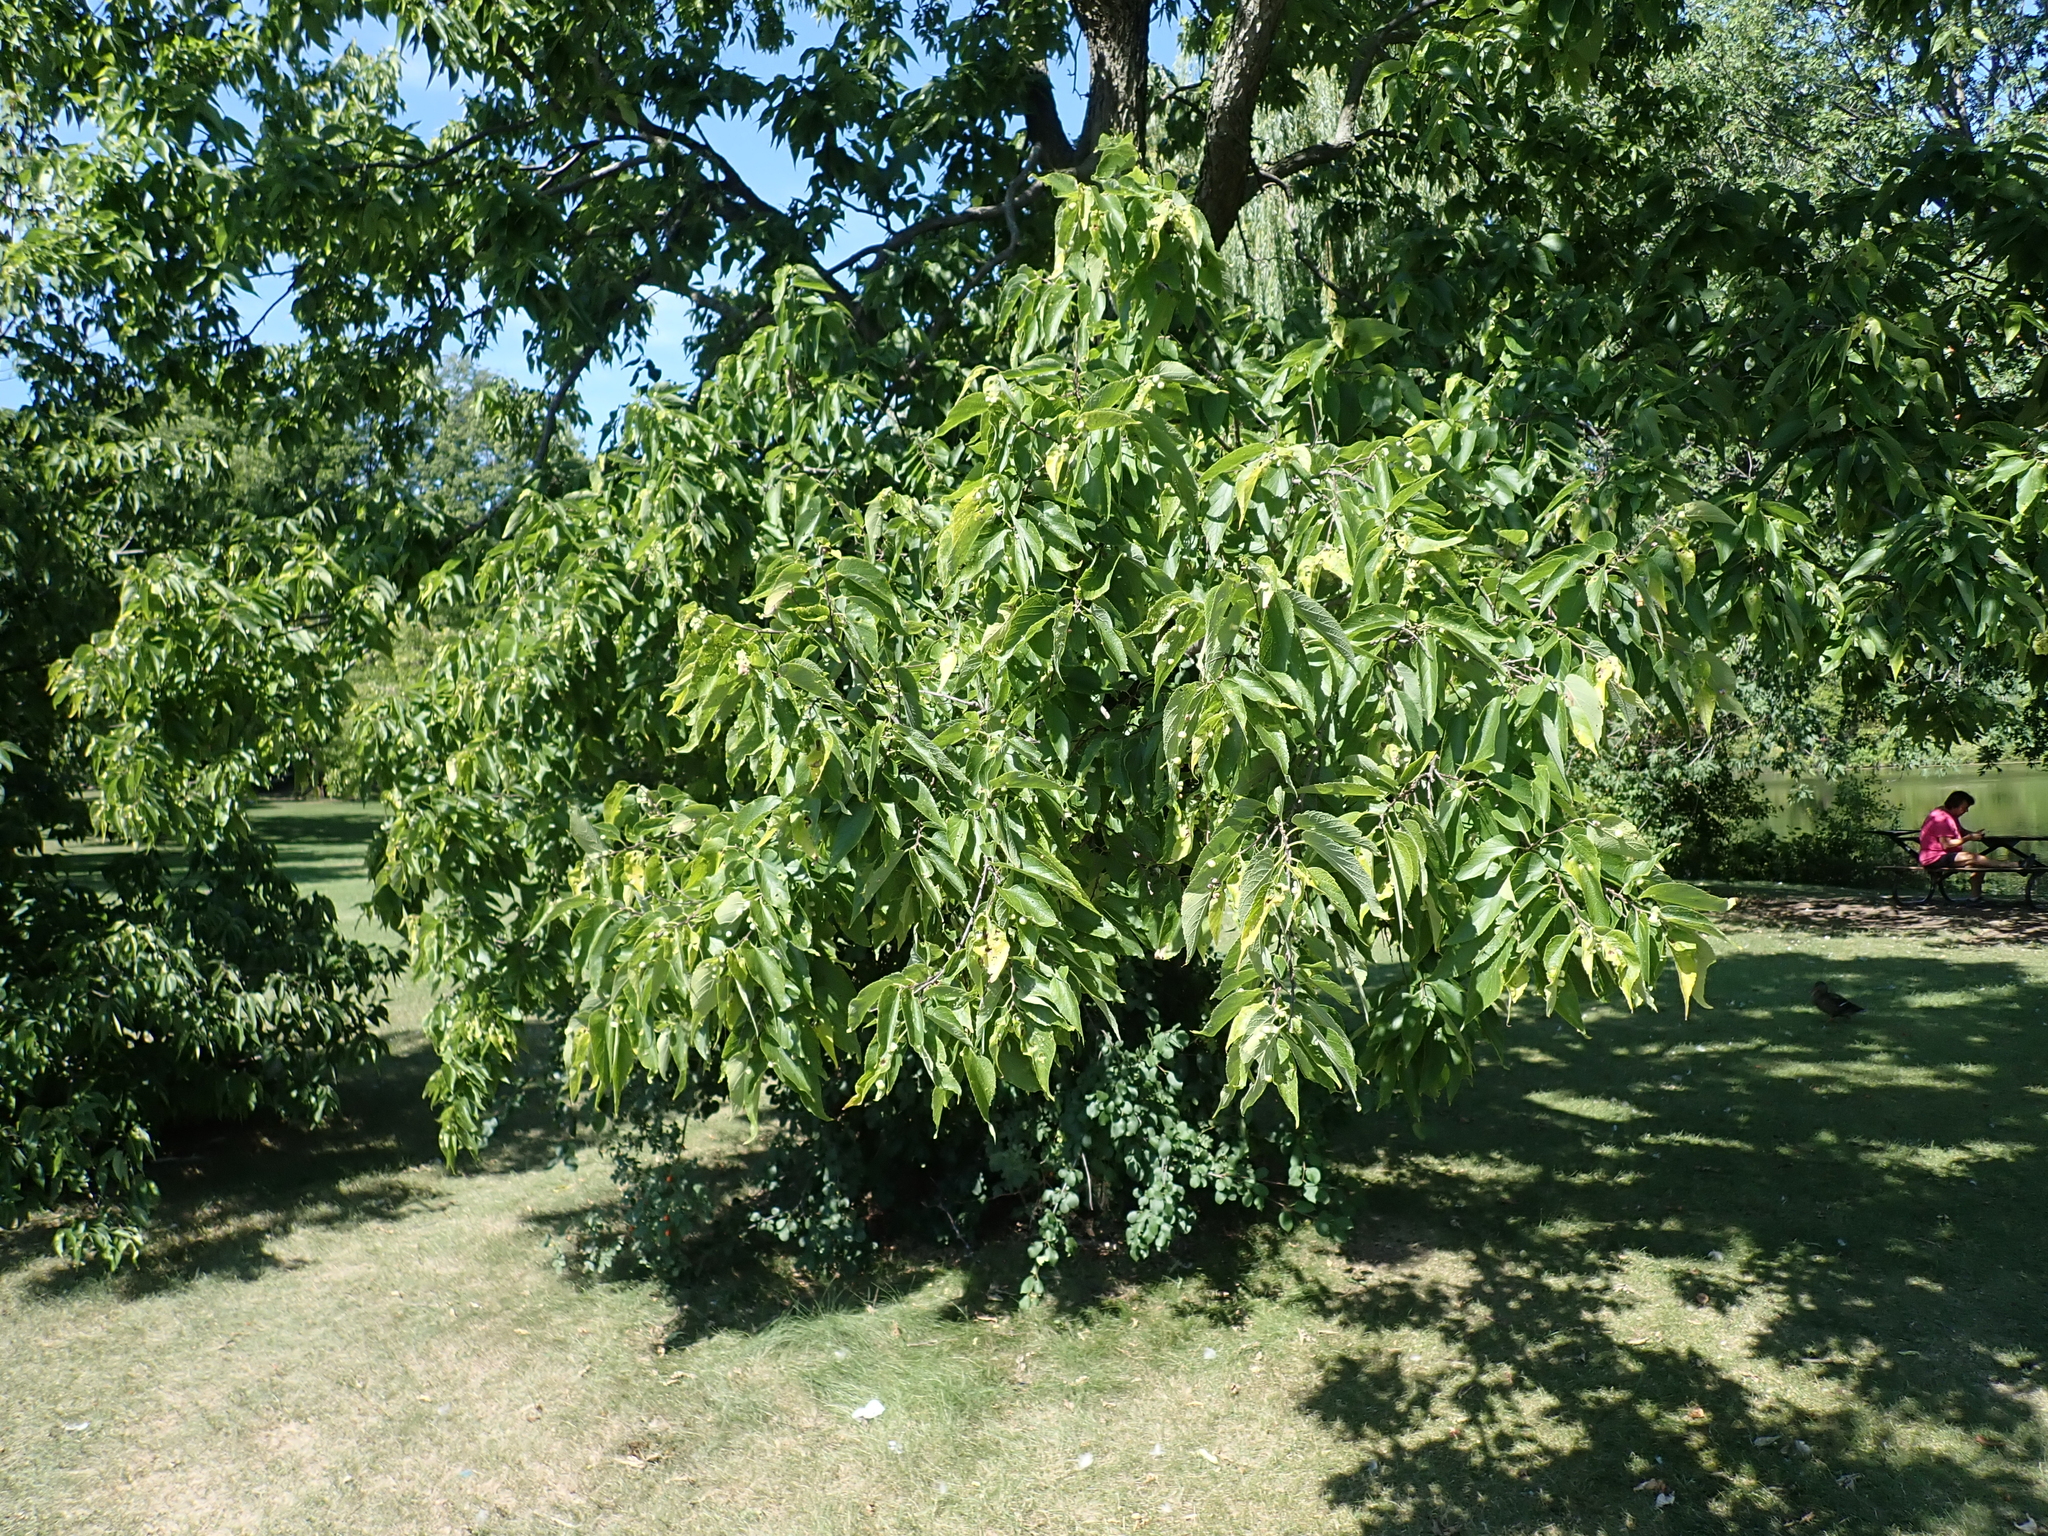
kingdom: Plantae
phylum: Tracheophyta
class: Magnoliopsida
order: Rosales
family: Cannabaceae
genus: Celtis
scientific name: Celtis occidentalis
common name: Common hackberry
